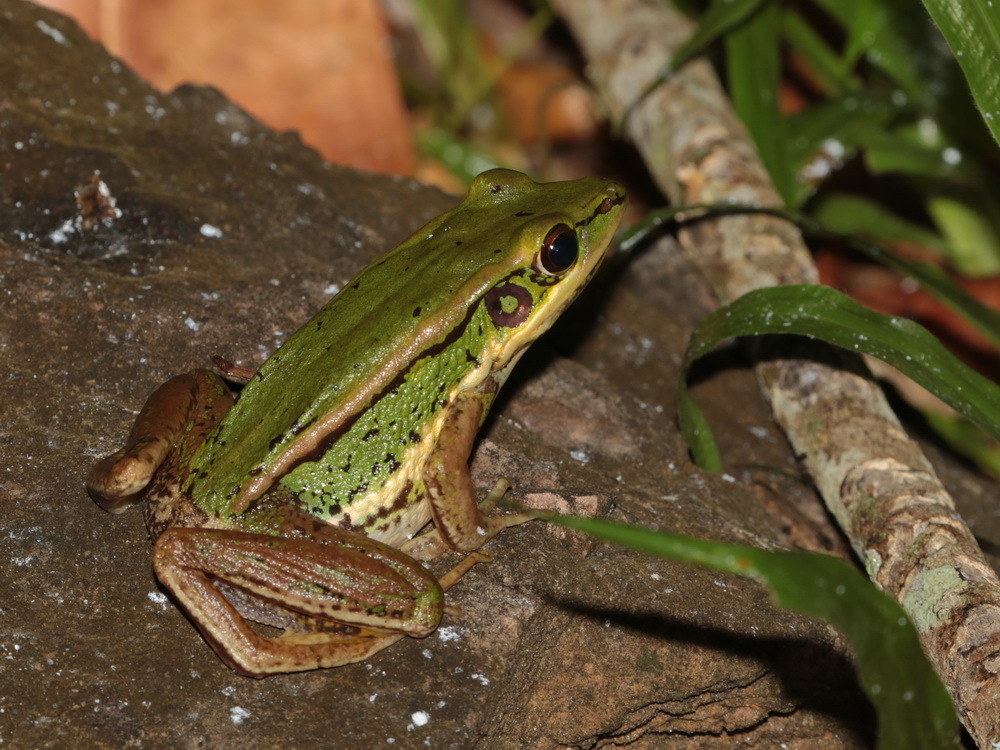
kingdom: Animalia
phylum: Chordata
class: Amphibia
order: Anura
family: Ranidae
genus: Hylarana
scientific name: Hylarana erythraea
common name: Common green frog/green paddy frog/leaf frog
